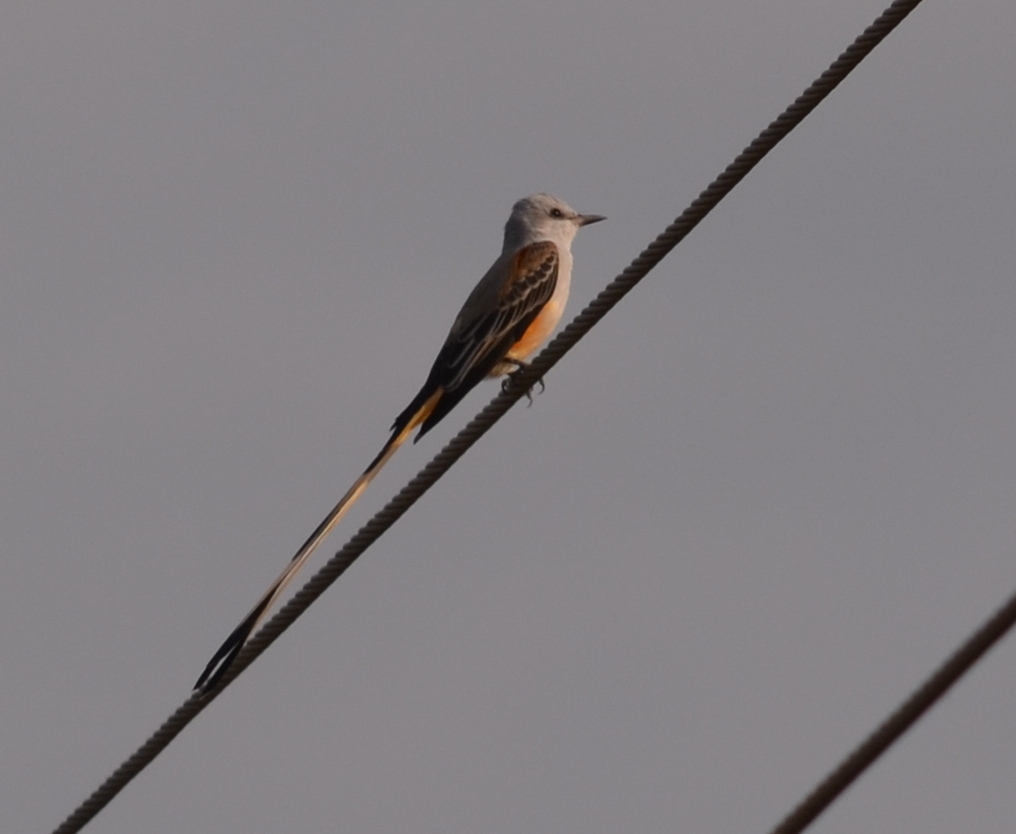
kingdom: Animalia
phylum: Chordata
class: Aves
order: Passeriformes
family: Tyrannidae
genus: Tyrannus
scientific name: Tyrannus forficatus
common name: Scissor-tailed flycatcher
